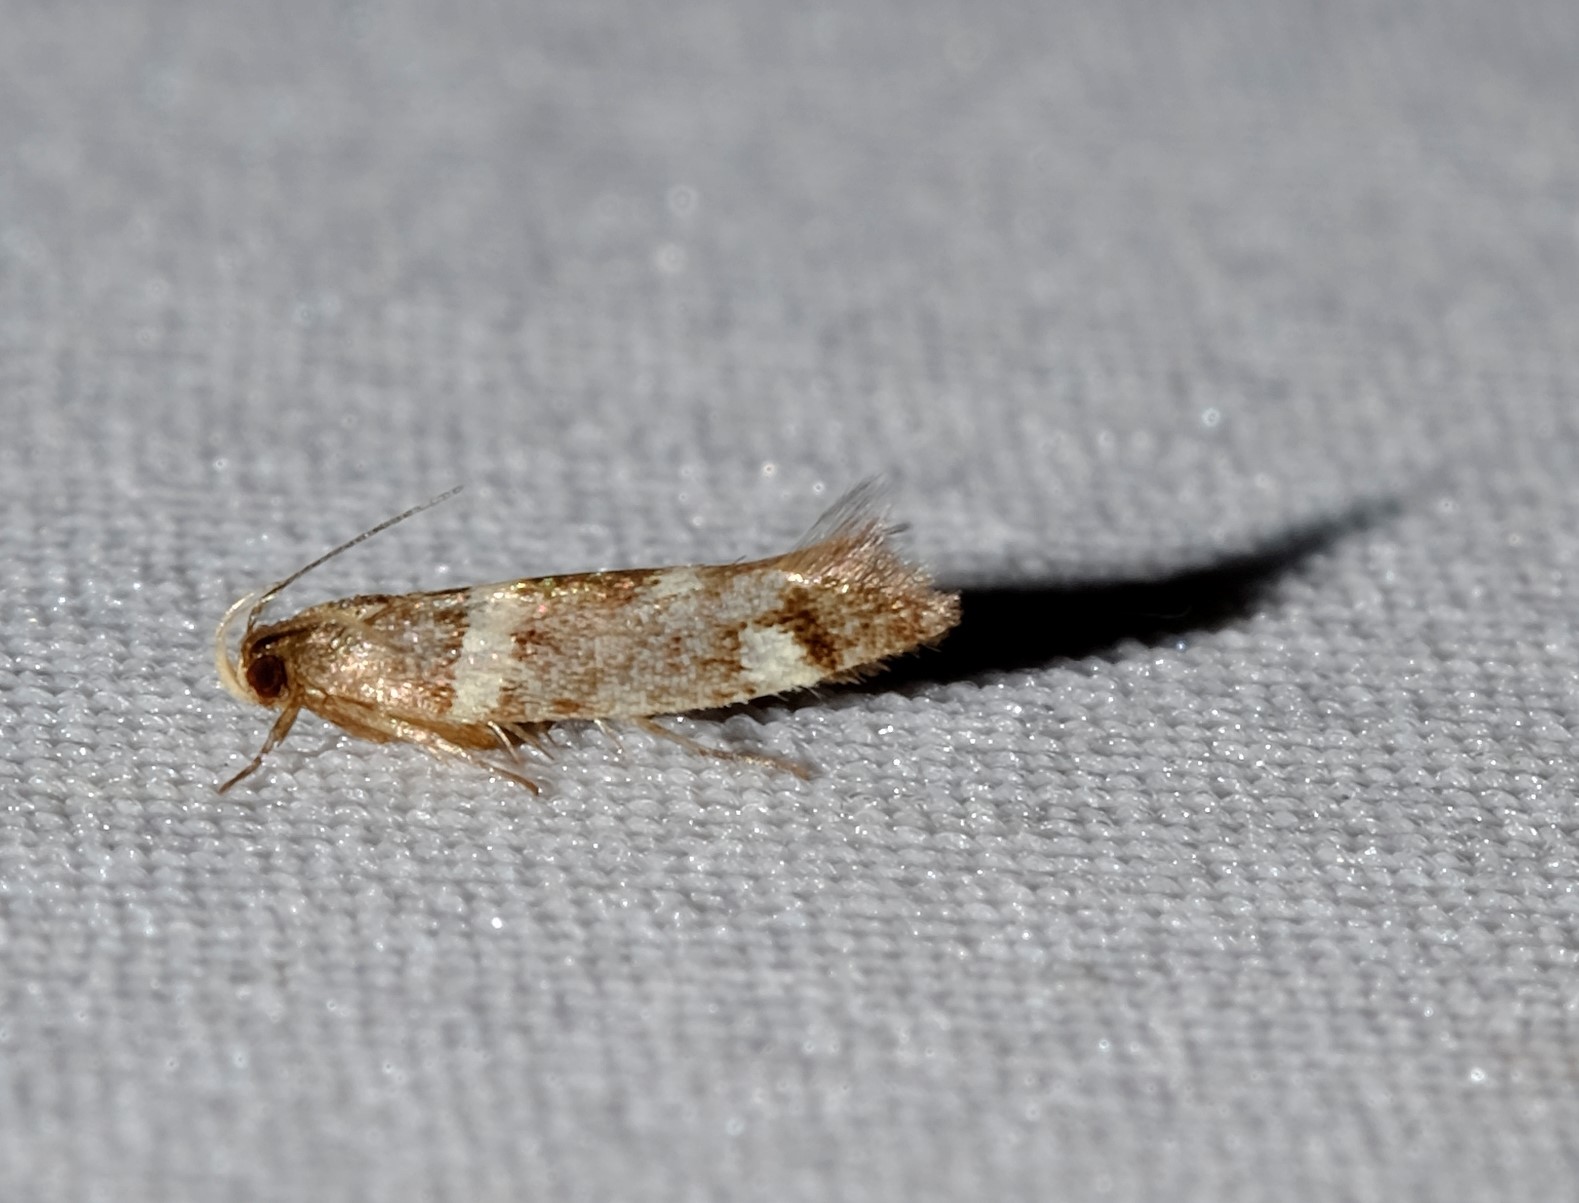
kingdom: Animalia
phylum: Arthropoda
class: Insecta
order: Lepidoptera
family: Cosmopterigidae
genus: Macrobathra
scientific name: Macrobathra alternatella
